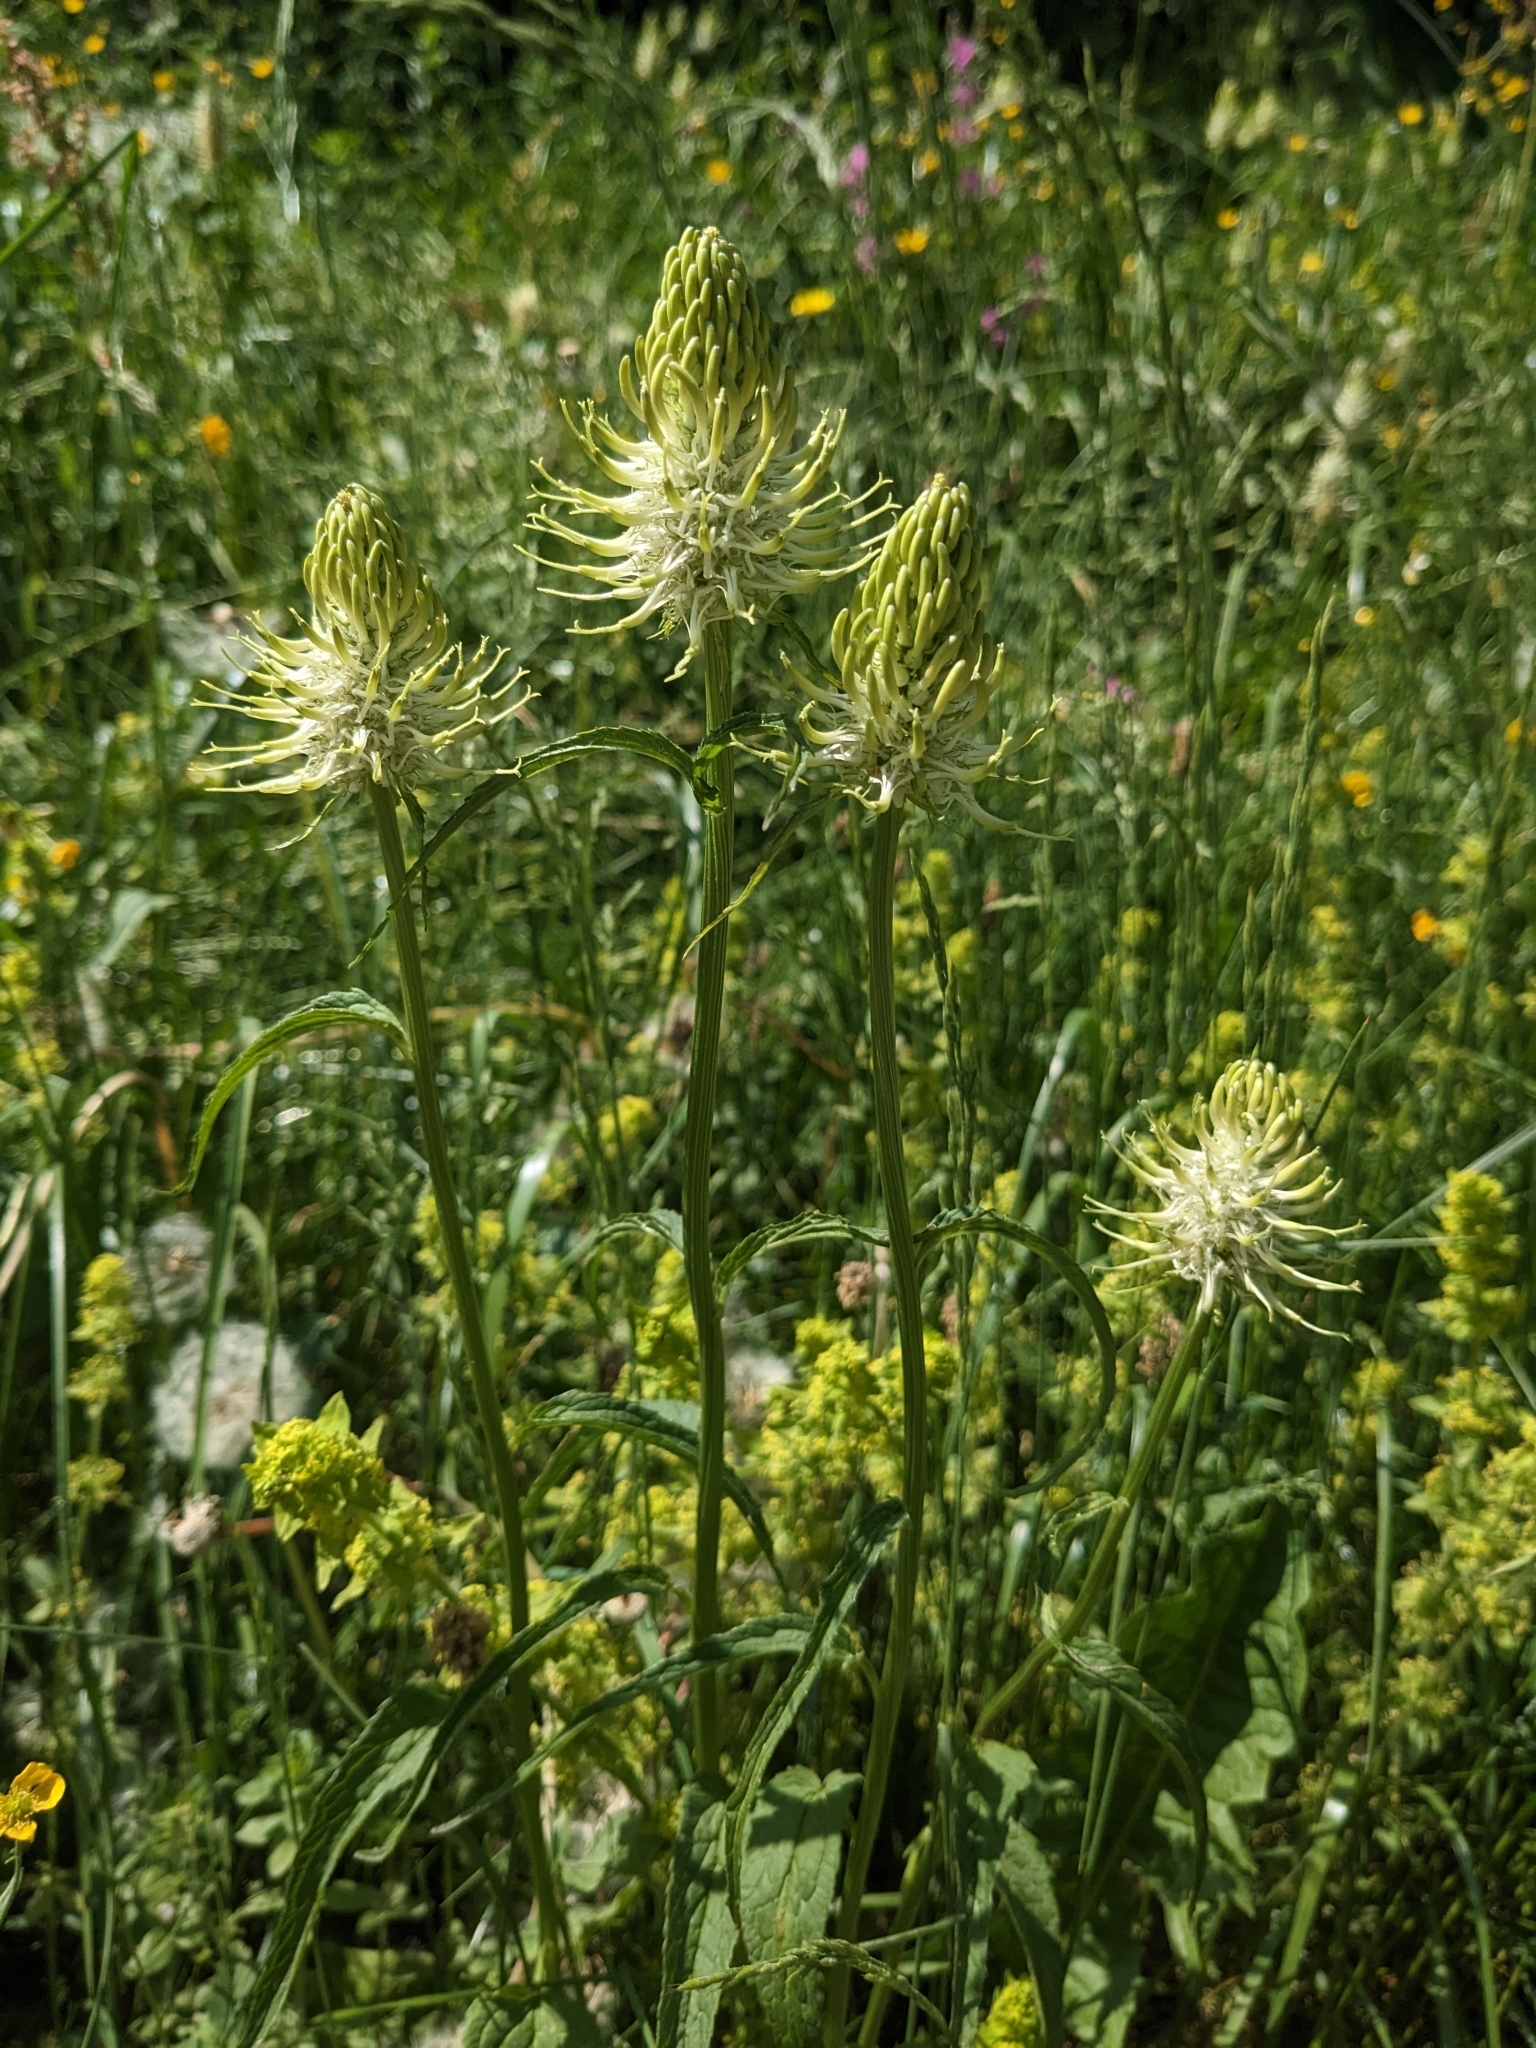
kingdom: Plantae
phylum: Tracheophyta
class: Magnoliopsida
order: Asterales
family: Campanulaceae
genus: Phyteuma
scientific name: Phyteuma spicatum
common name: Spiked rampion
